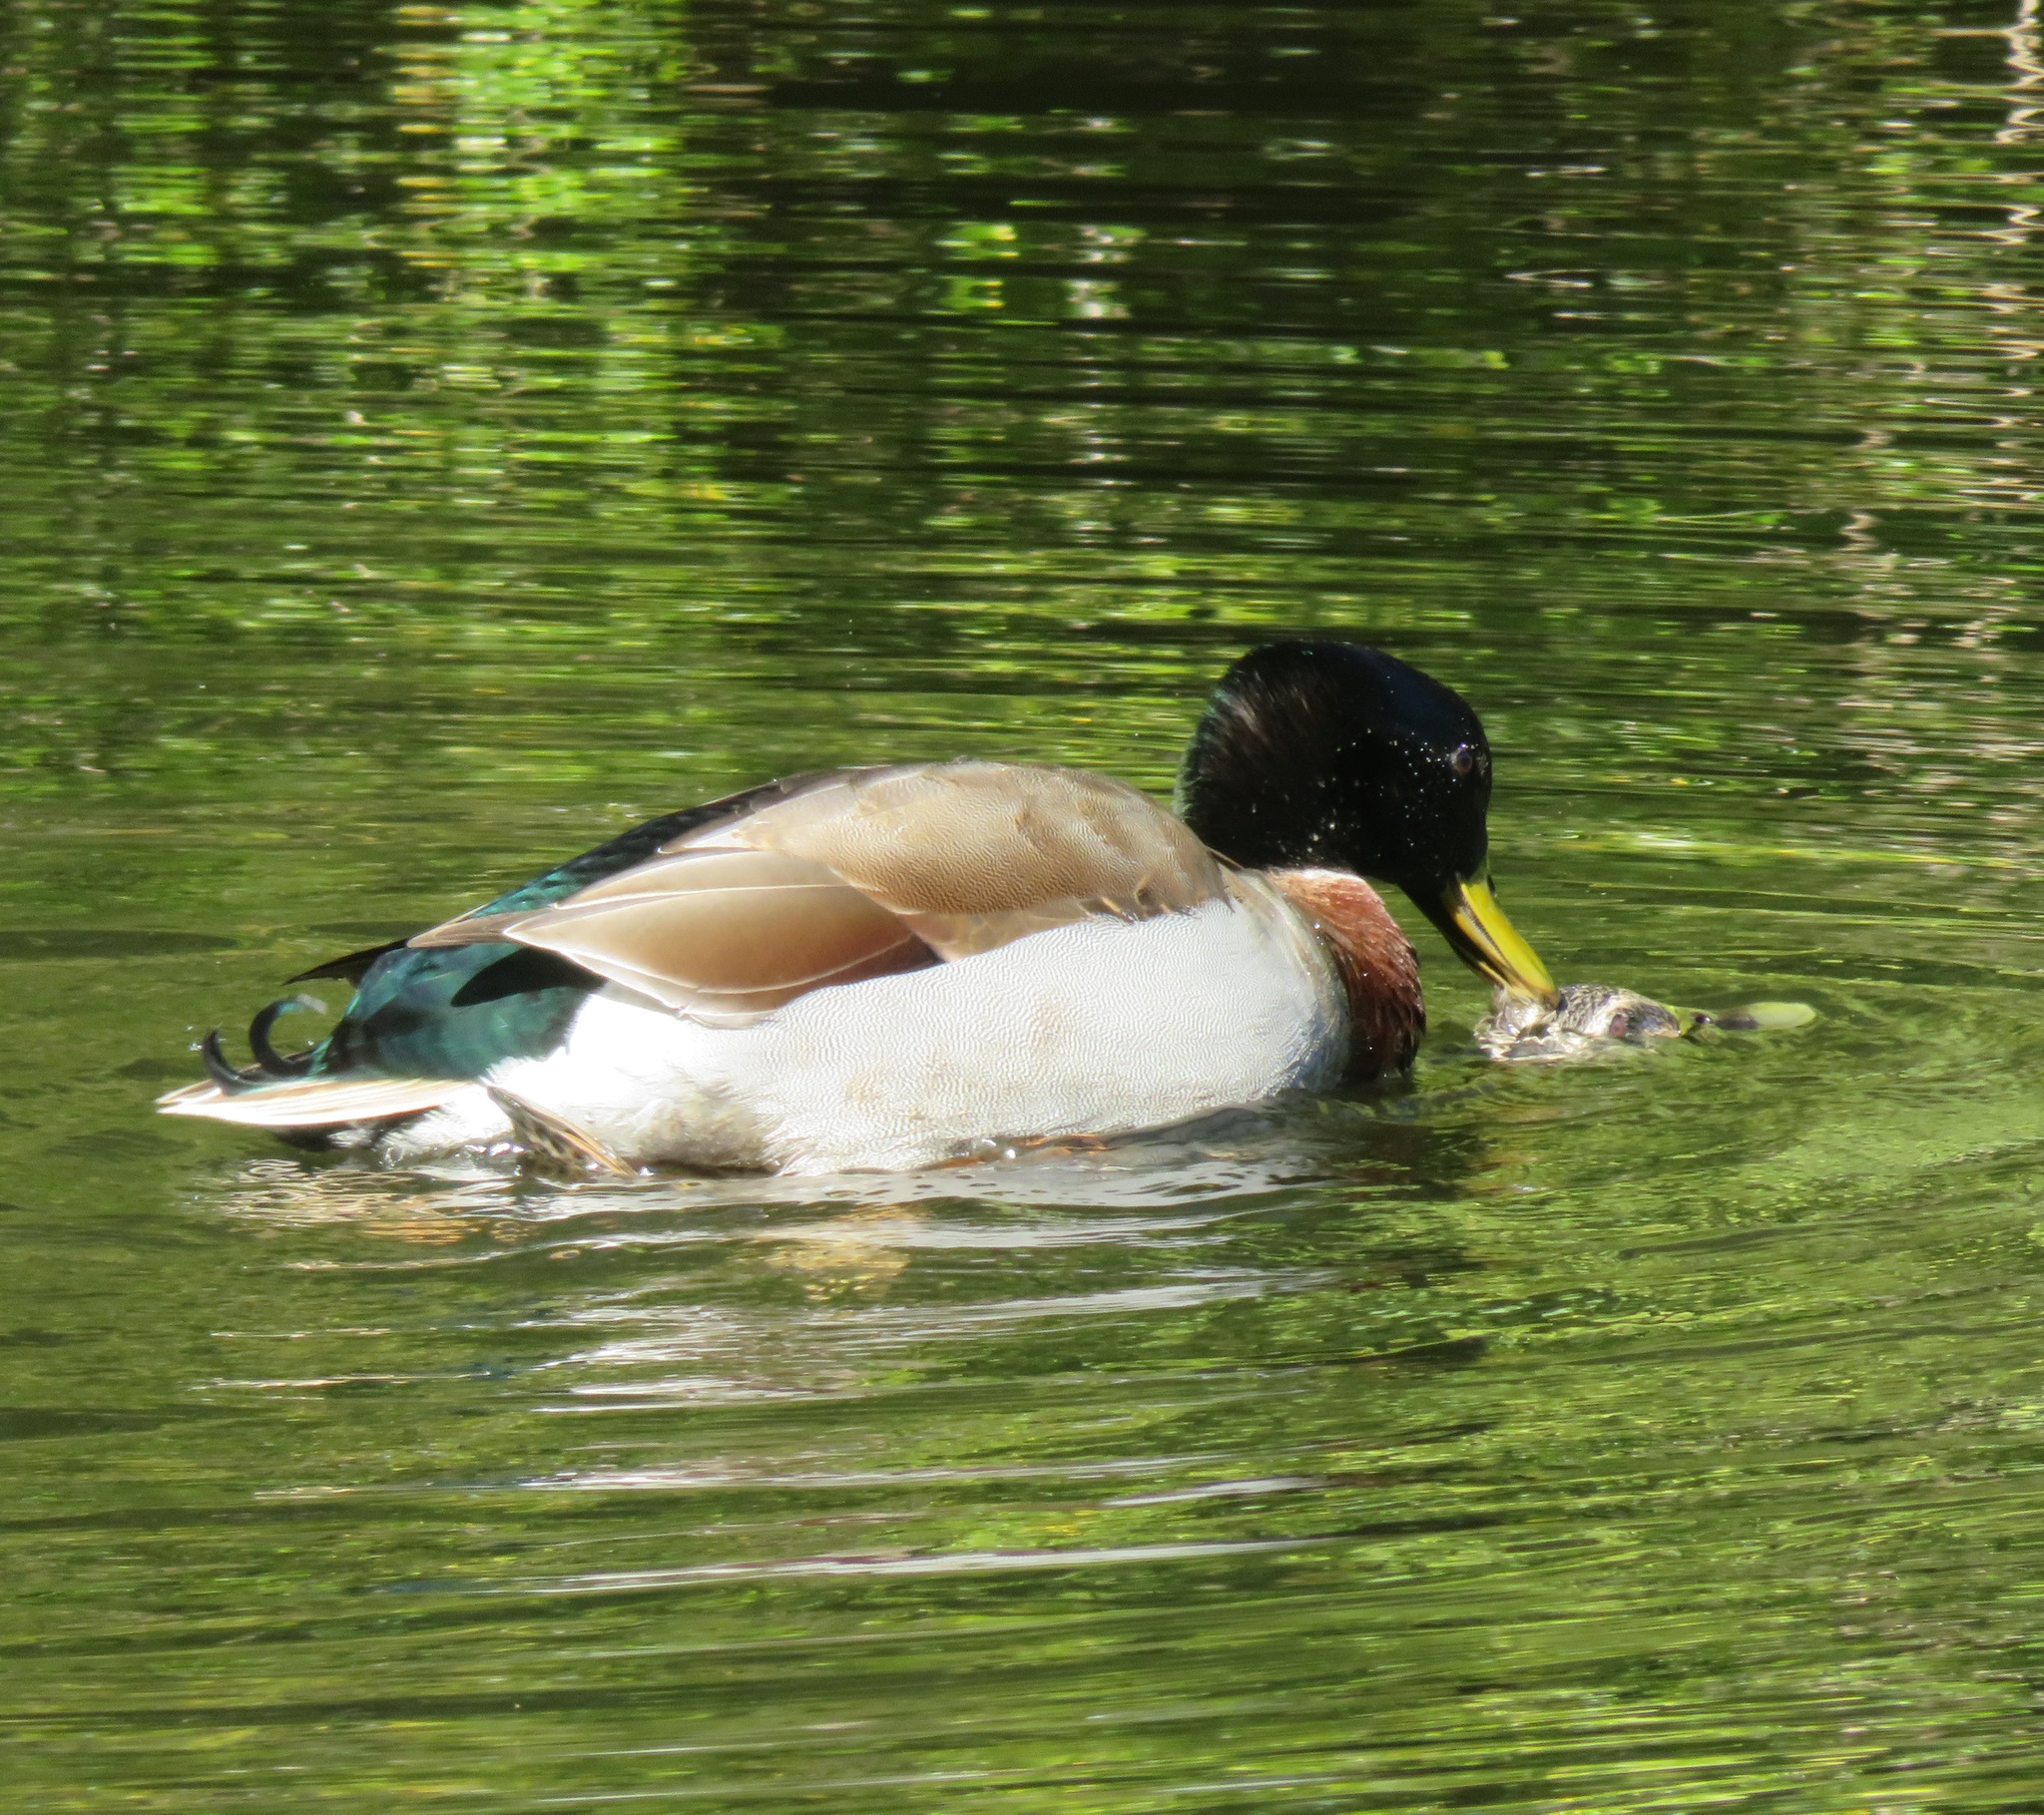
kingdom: Animalia
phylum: Chordata
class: Aves
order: Anseriformes
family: Anatidae
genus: Anas
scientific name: Anas platyrhynchos
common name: Mallard
